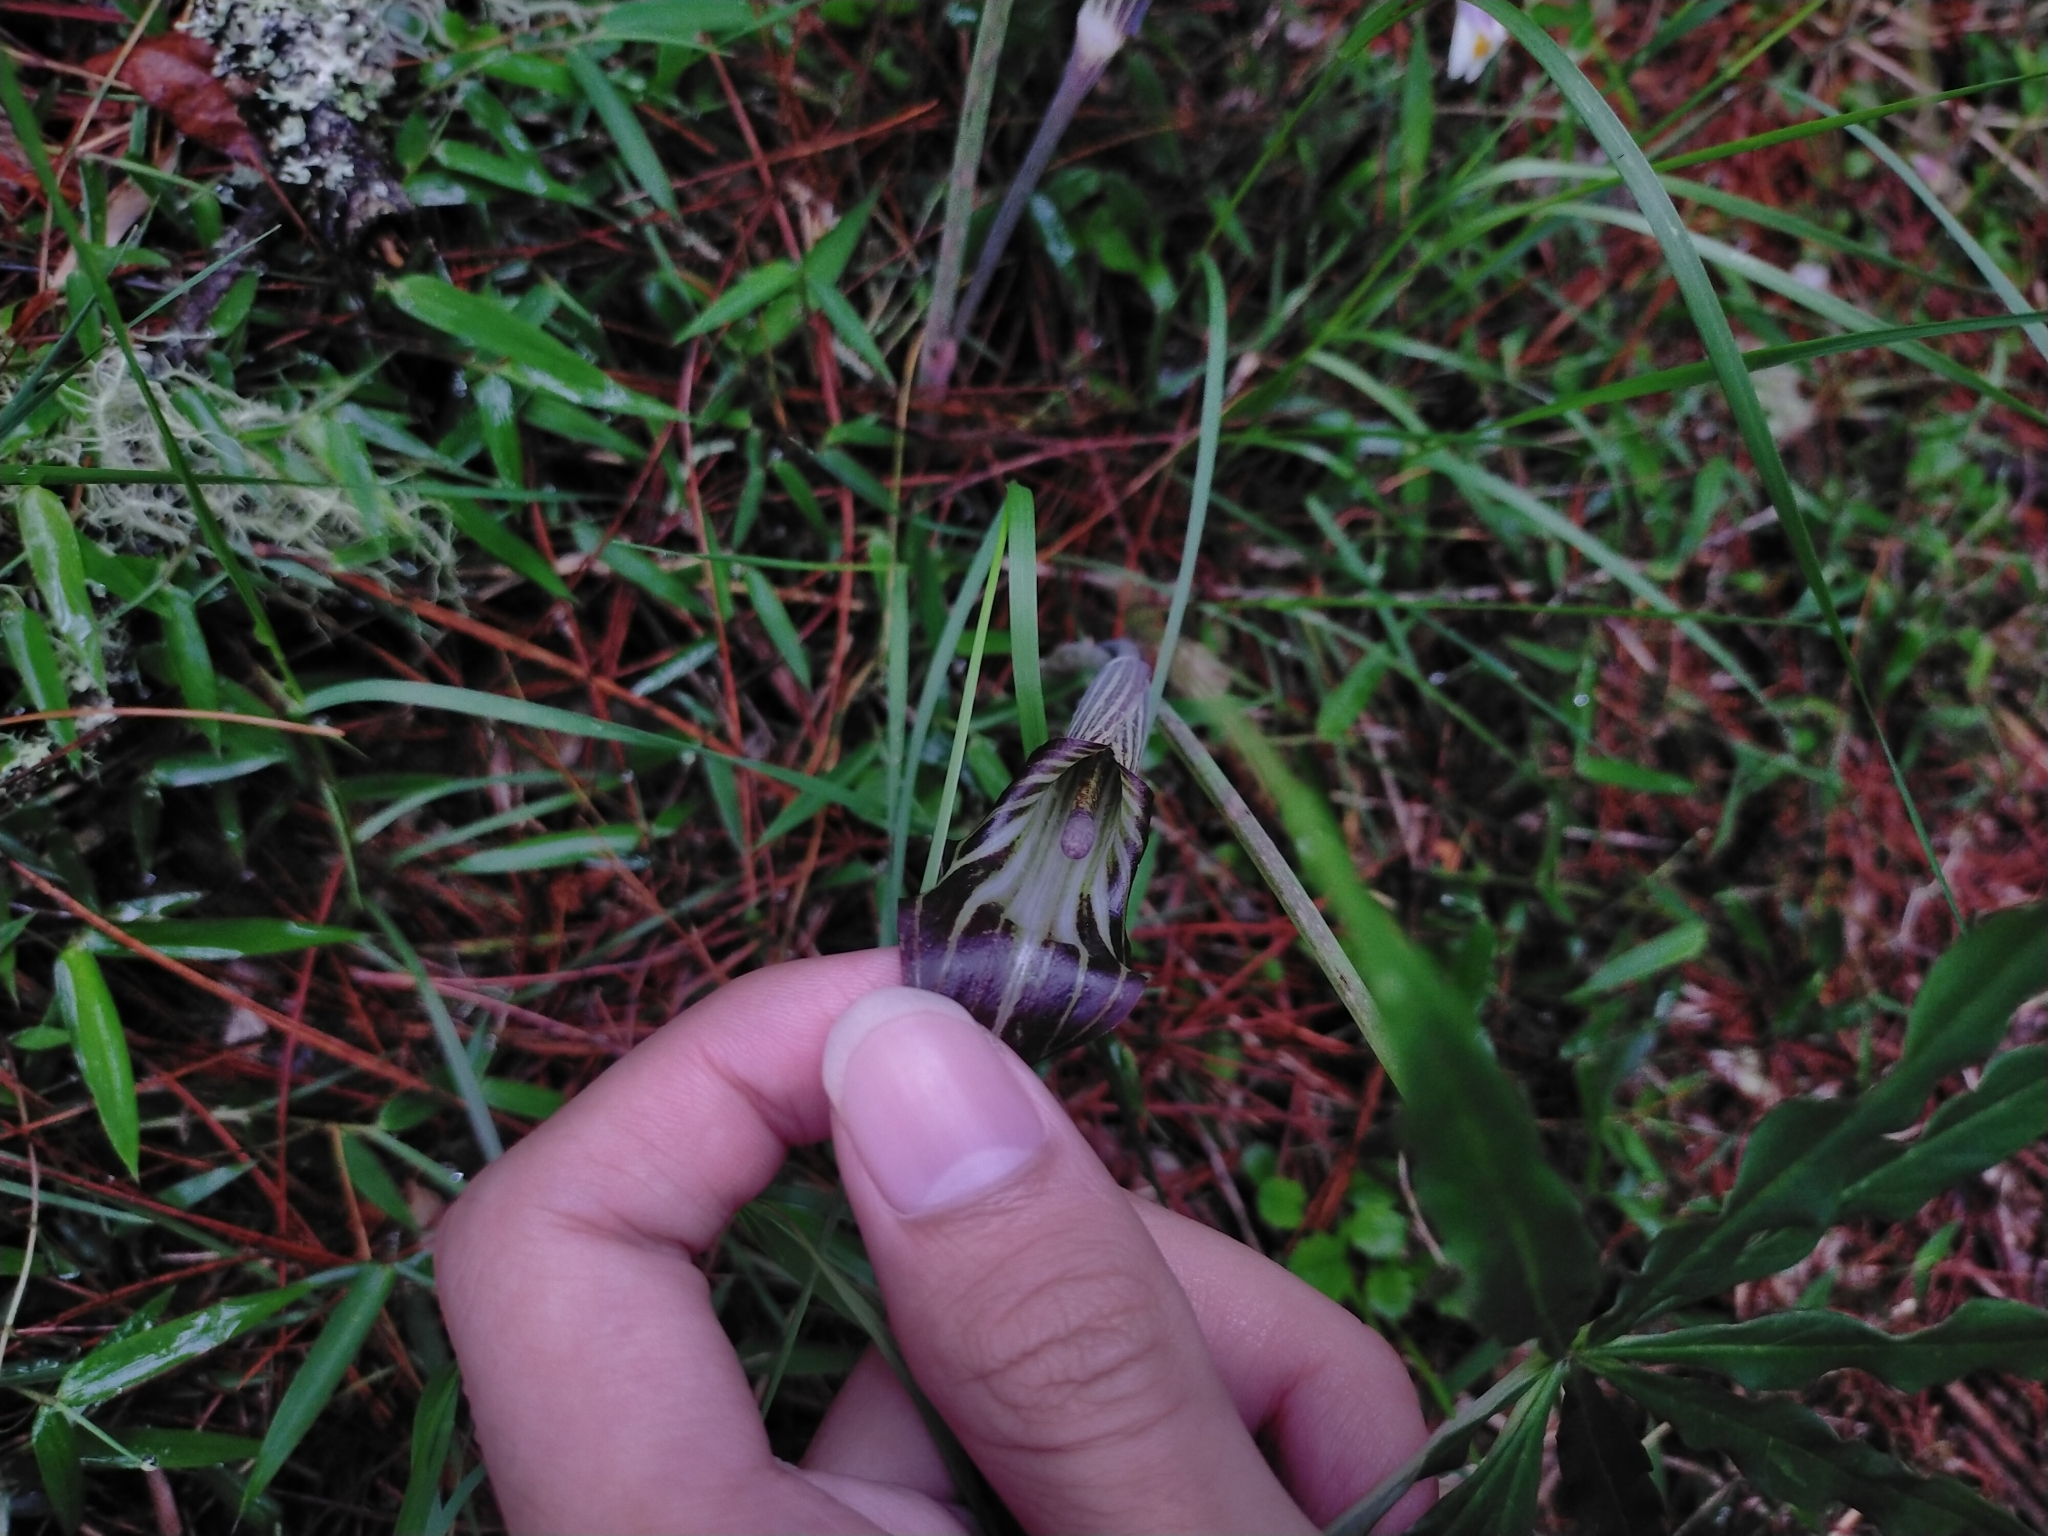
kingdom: Plantae
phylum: Tracheophyta
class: Liliopsida
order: Alismatales
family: Araceae
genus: Arisaema
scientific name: Arisaema consanguineum
